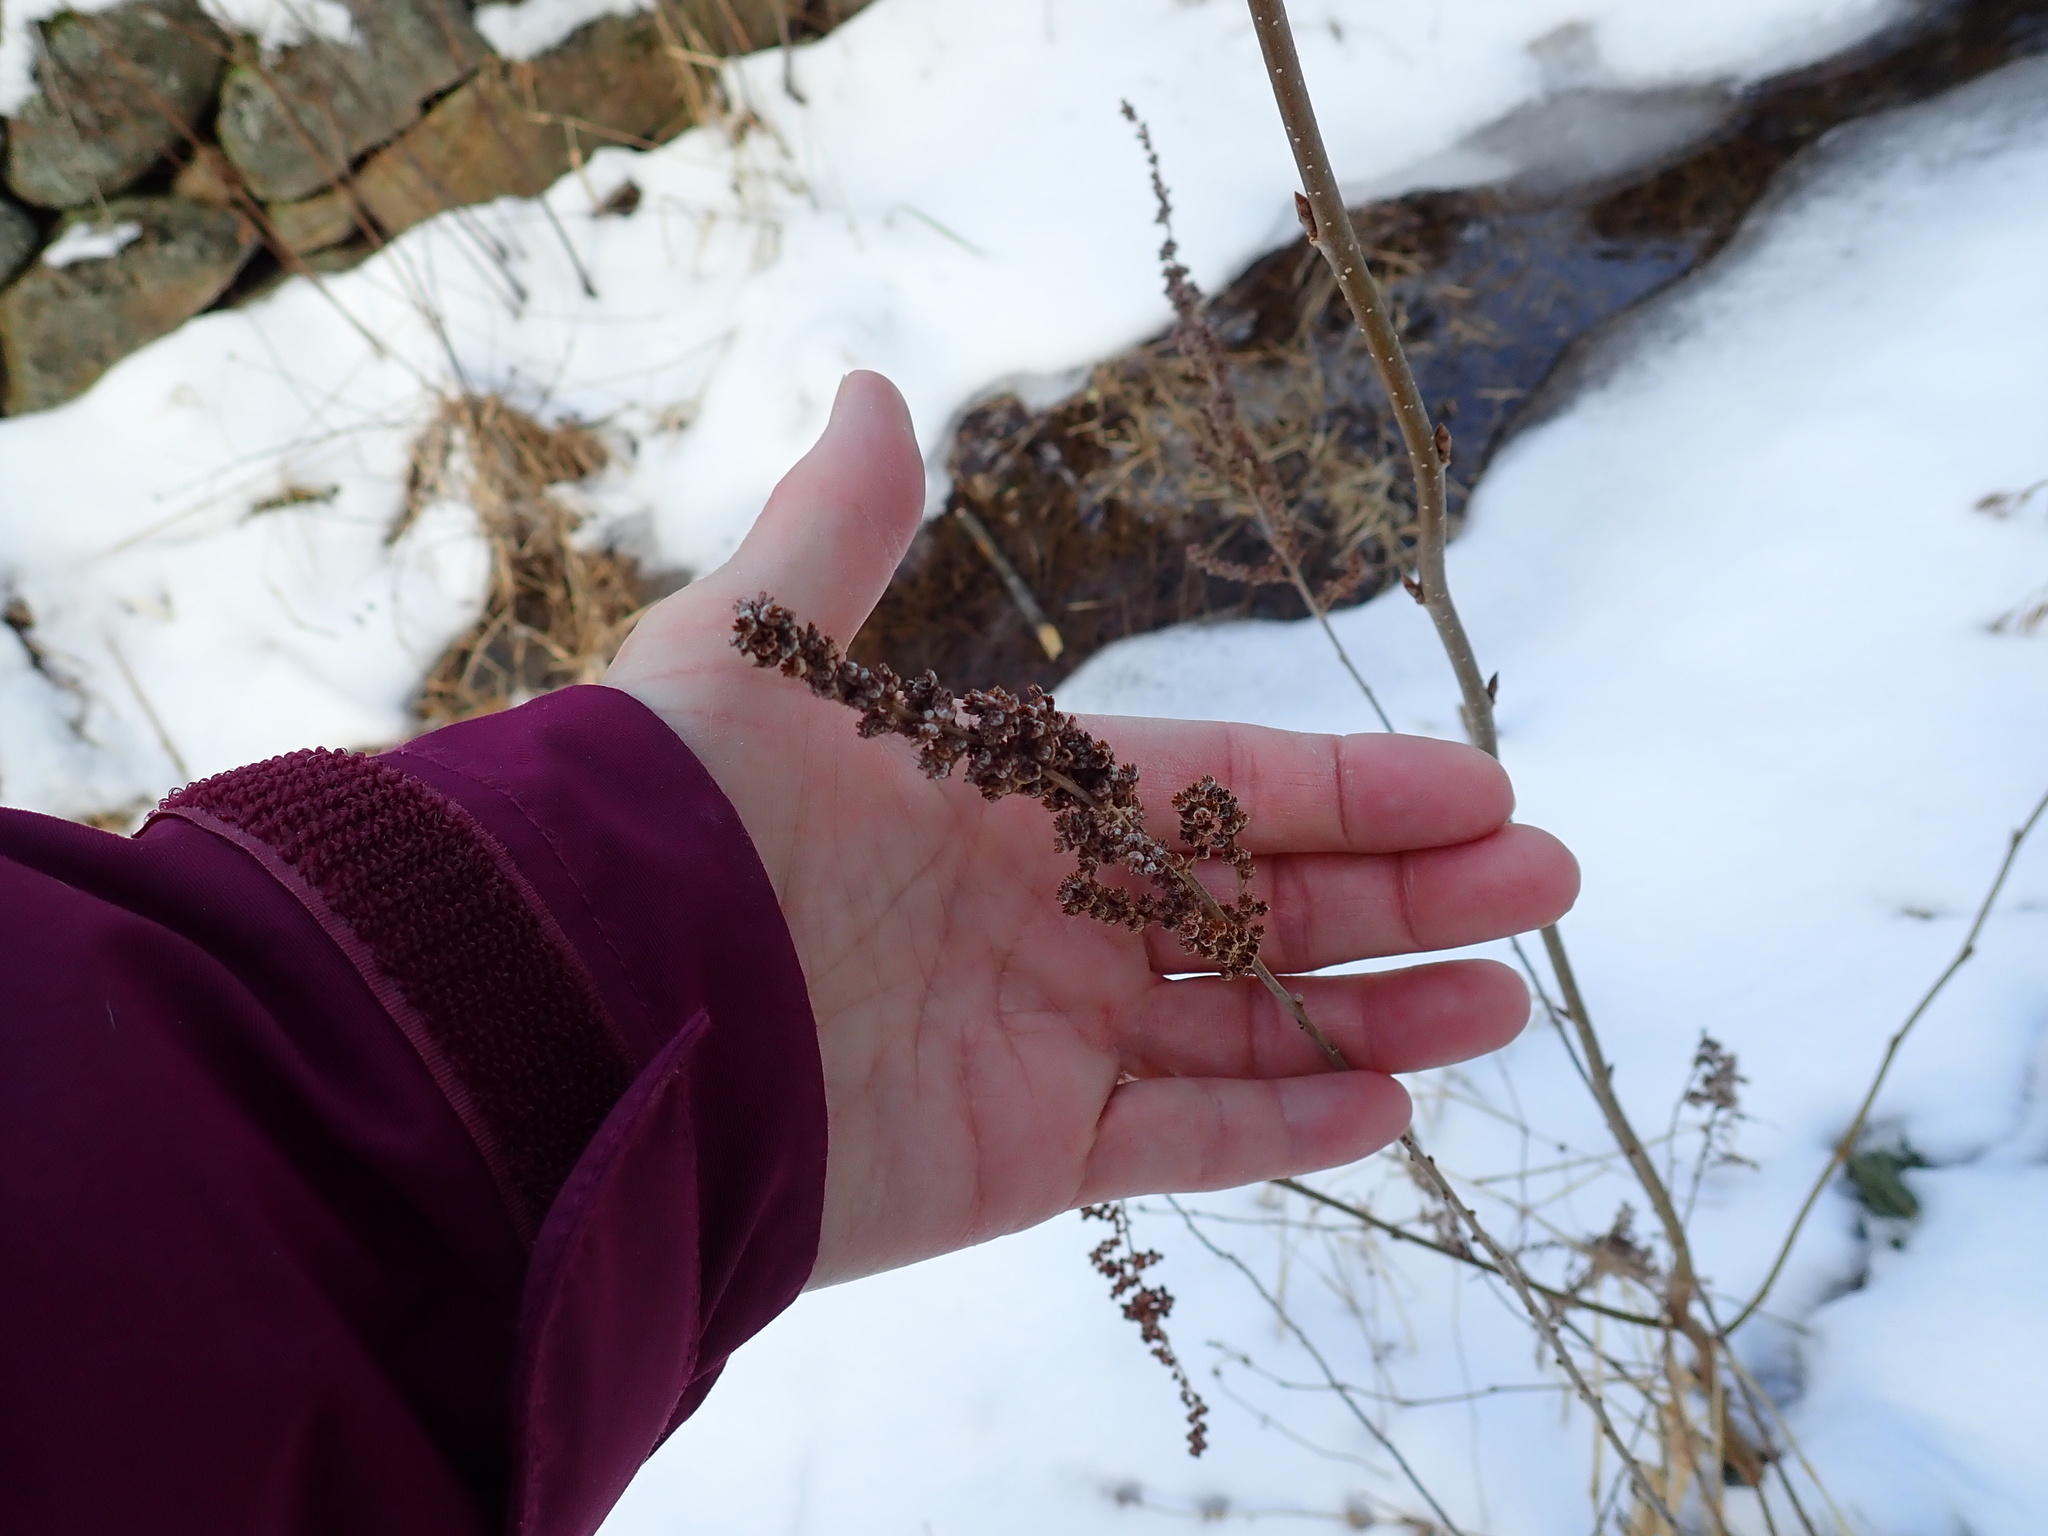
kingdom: Plantae
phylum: Tracheophyta
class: Magnoliopsida
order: Rosales
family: Rosaceae
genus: Spiraea
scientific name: Spiraea tomentosa
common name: Hardhack
